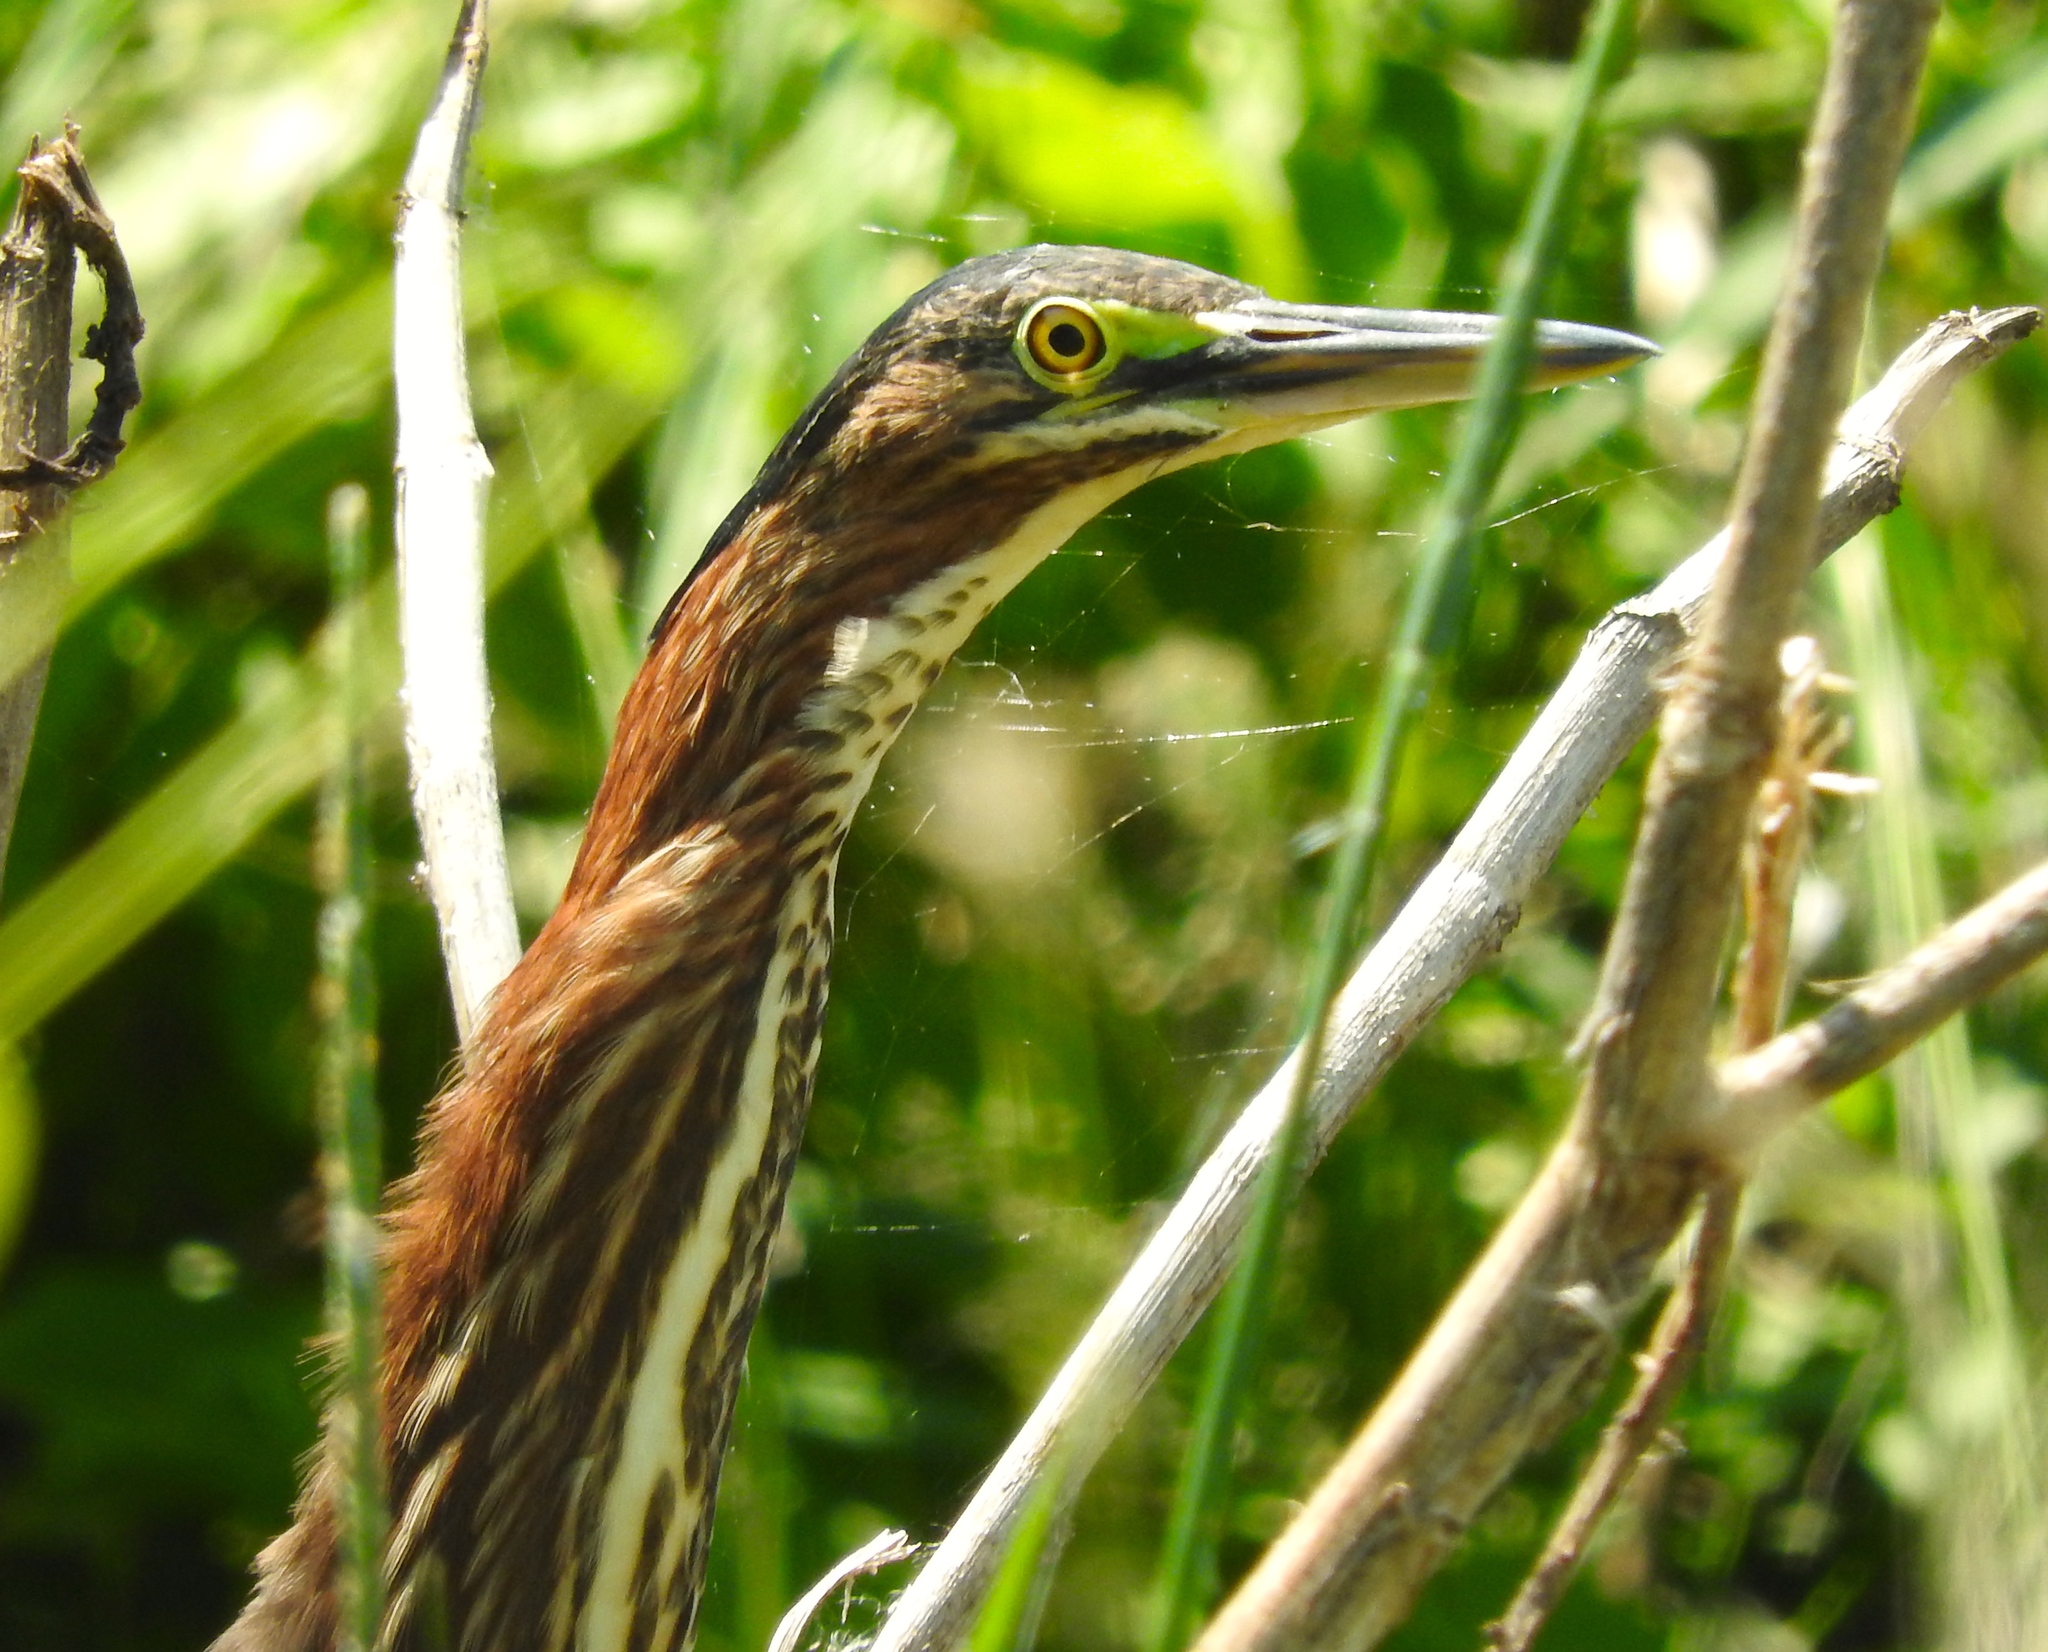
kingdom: Animalia
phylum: Chordata
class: Aves
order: Pelecaniformes
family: Ardeidae
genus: Butorides
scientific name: Butorides virescens
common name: Green heron
